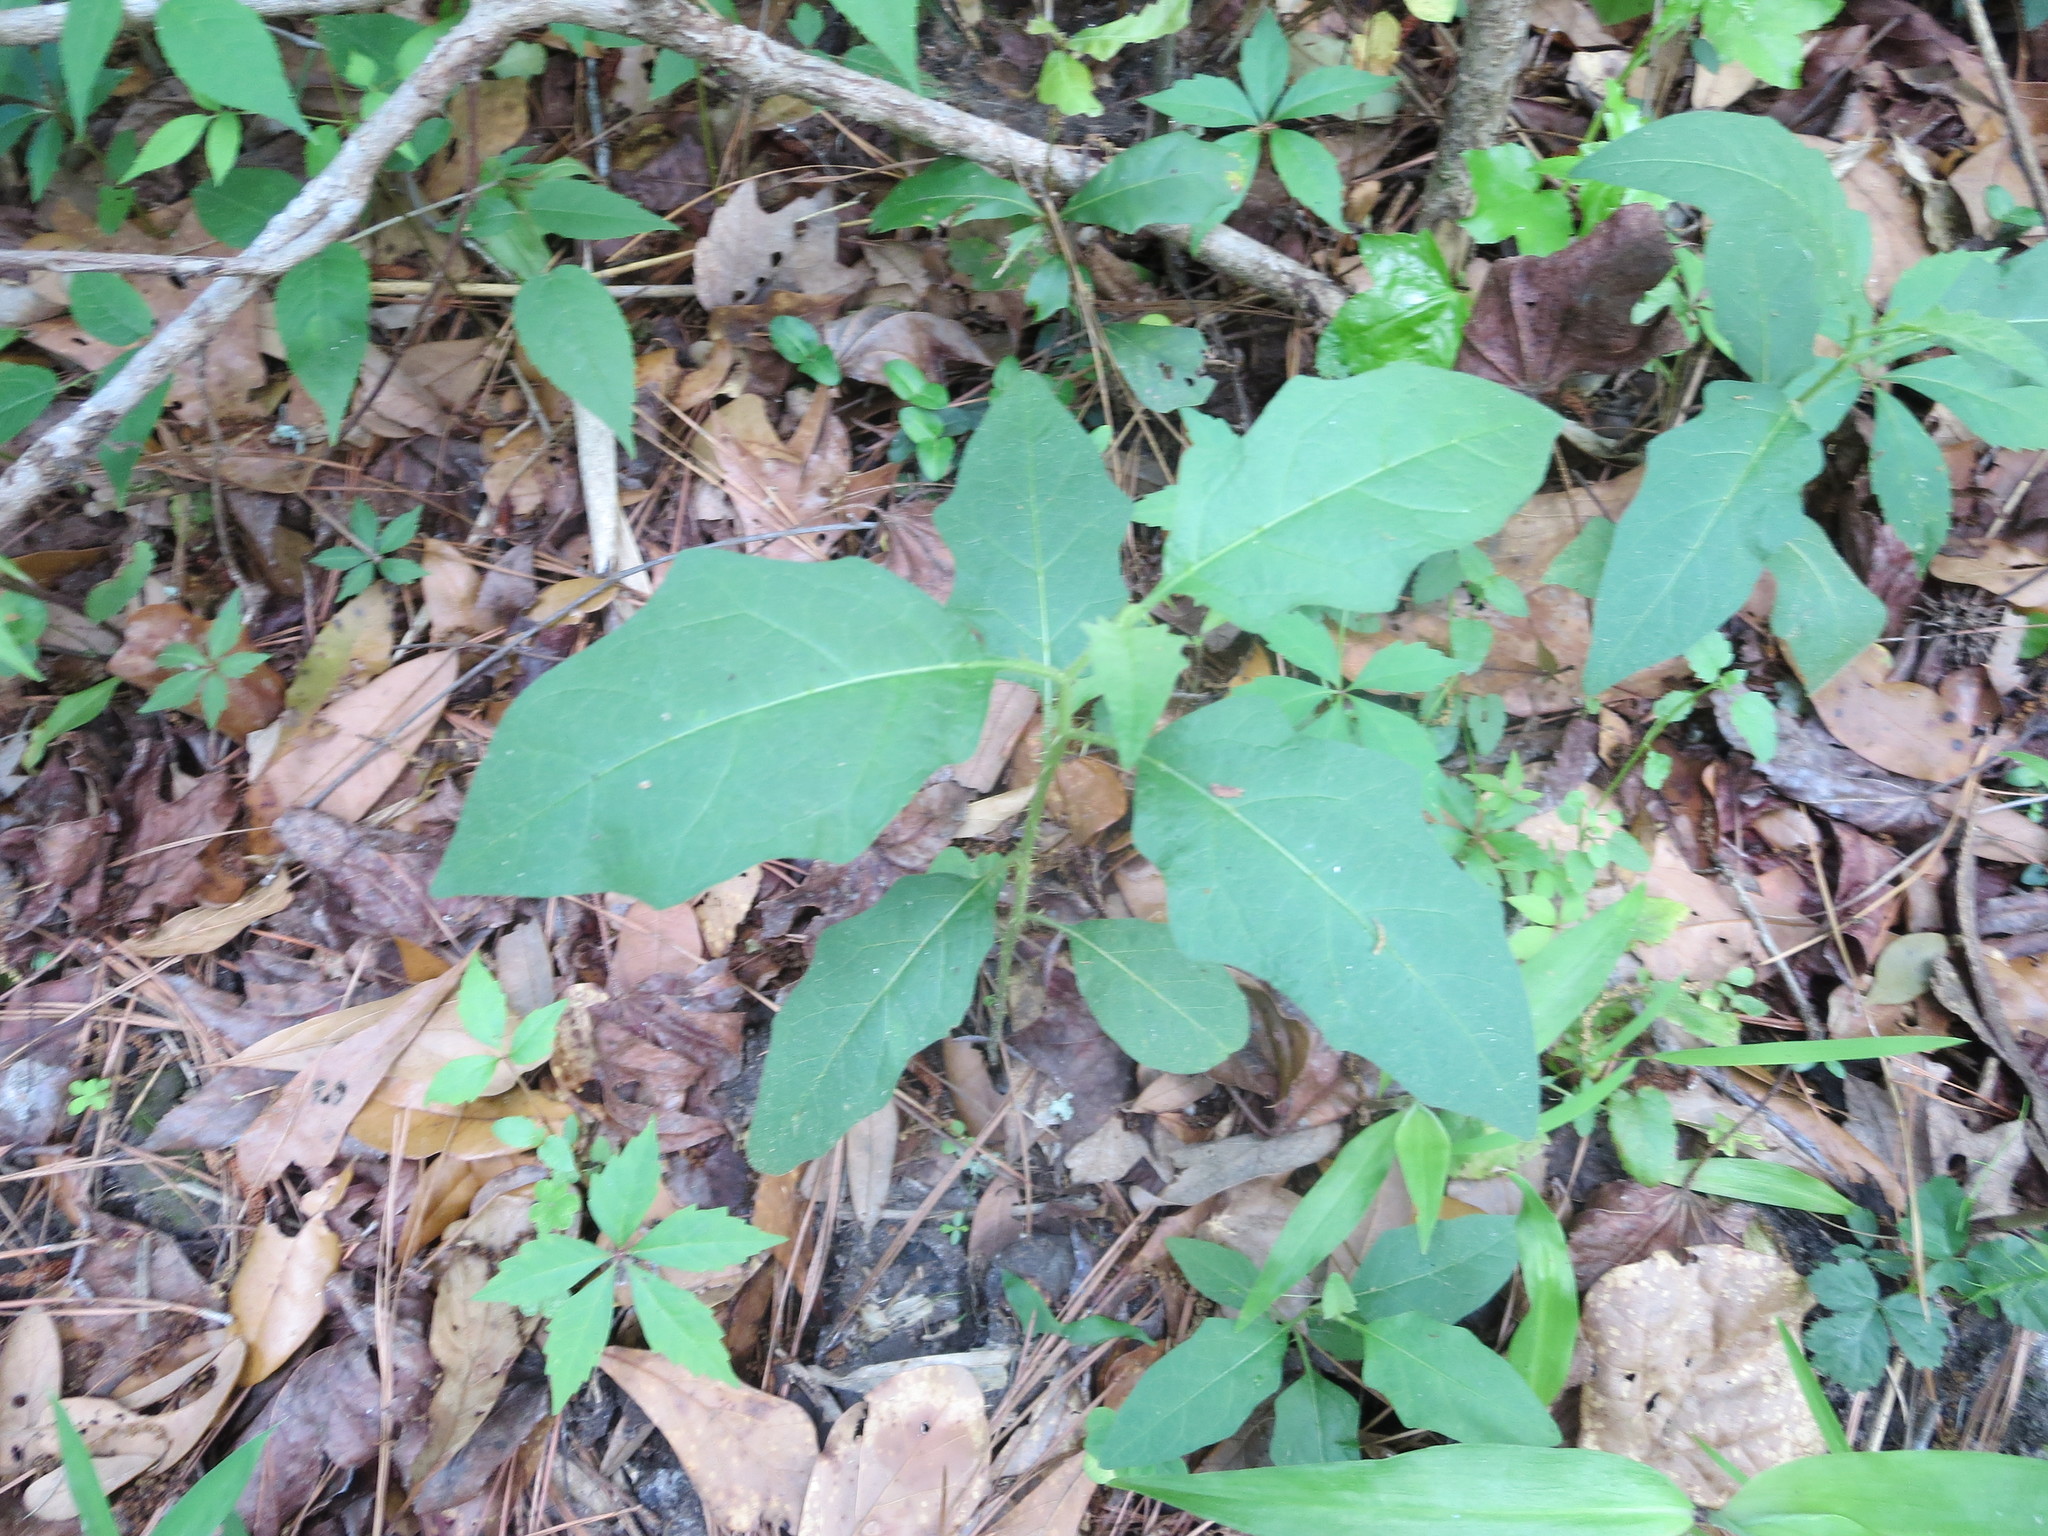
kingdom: Plantae
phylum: Tracheophyta
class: Magnoliopsida
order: Solanales
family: Solanaceae
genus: Solanum
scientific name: Solanum carolinense
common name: Horse-nettle
